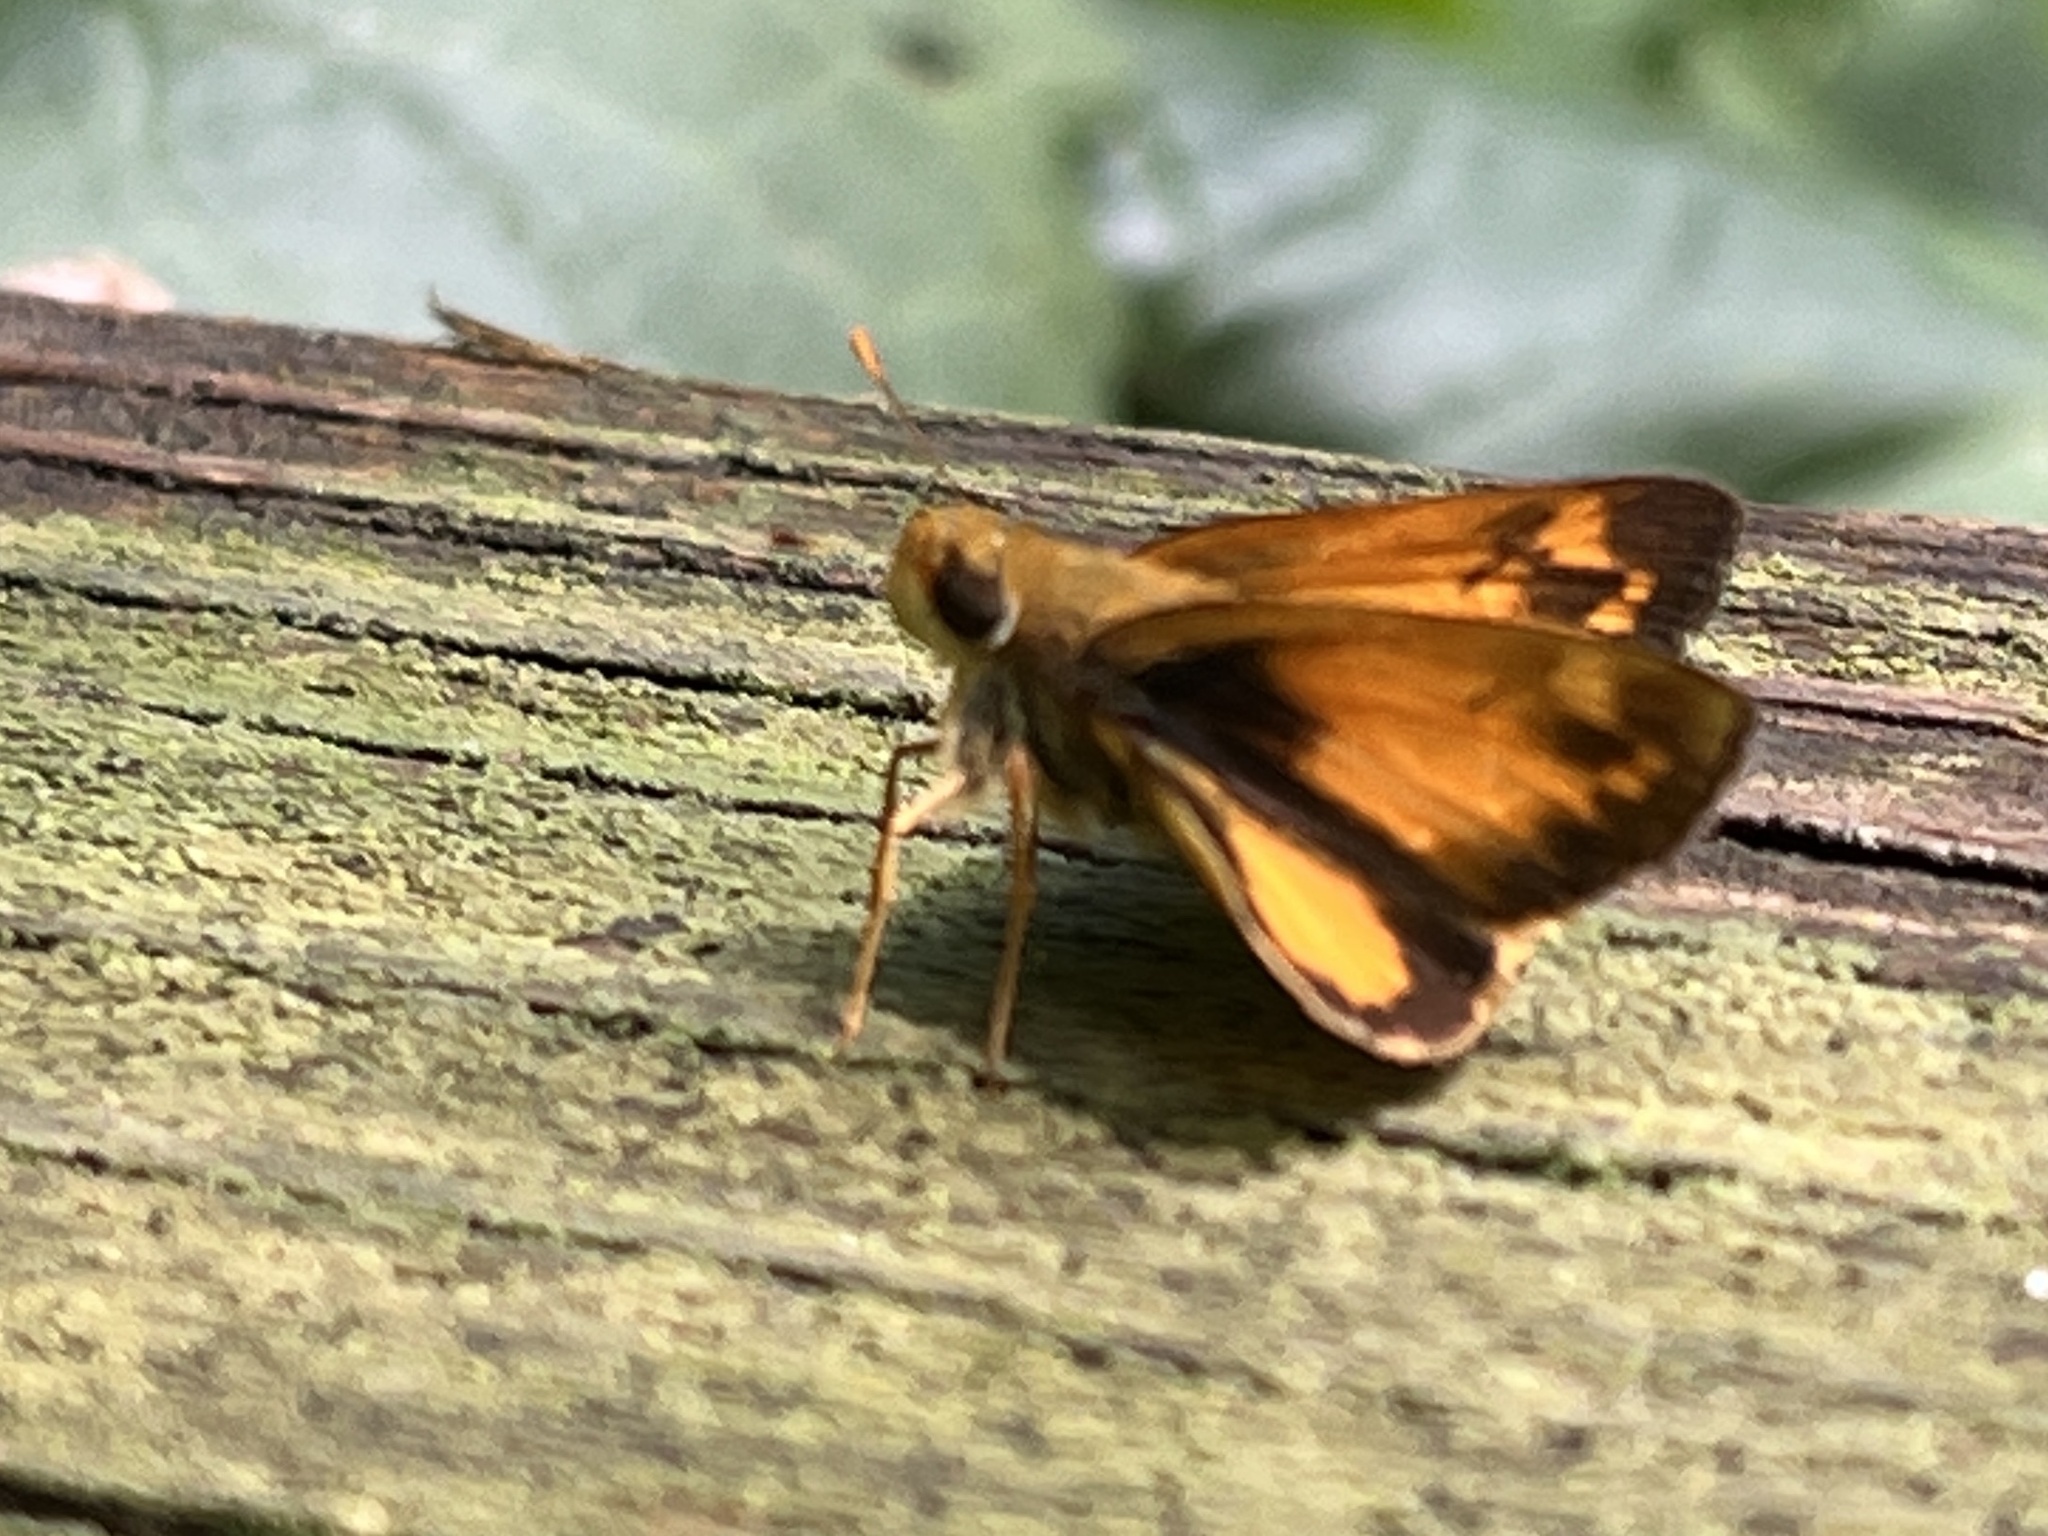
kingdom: Animalia
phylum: Arthropoda
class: Insecta
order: Lepidoptera
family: Hesperiidae
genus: Lon
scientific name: Lon zabulon
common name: Zabulon skipper
